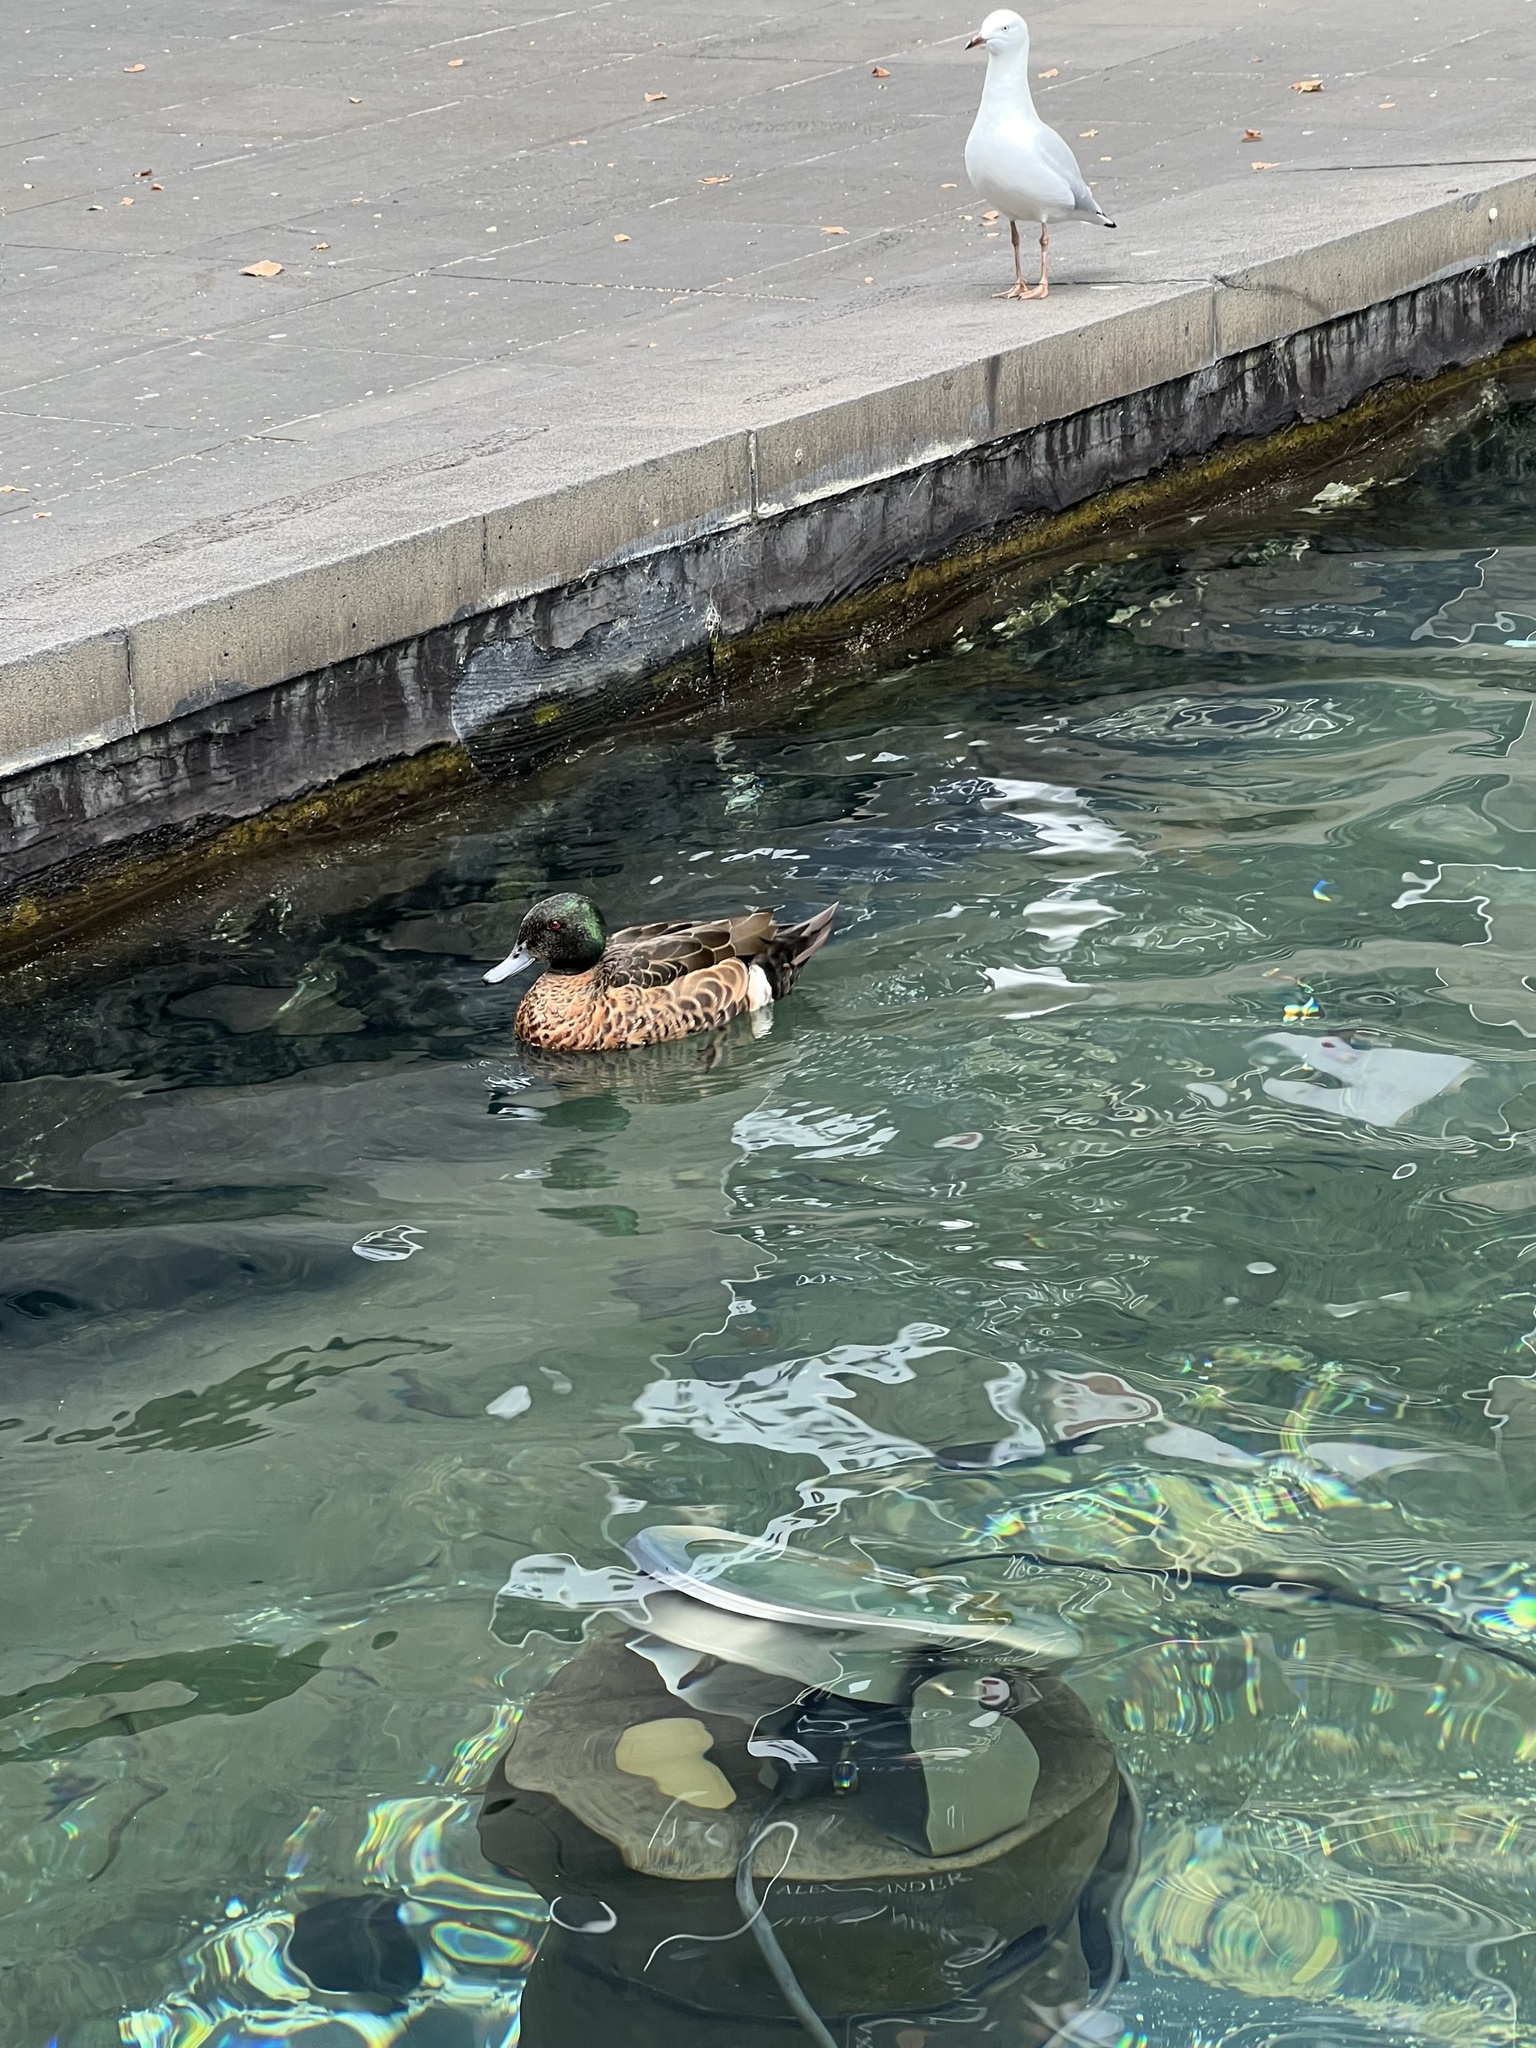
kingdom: Animalia
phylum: Chordata
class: Aves
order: Anseriformes
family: Anatidae
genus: Anas
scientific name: Anas castanea
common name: Chestnut teal
